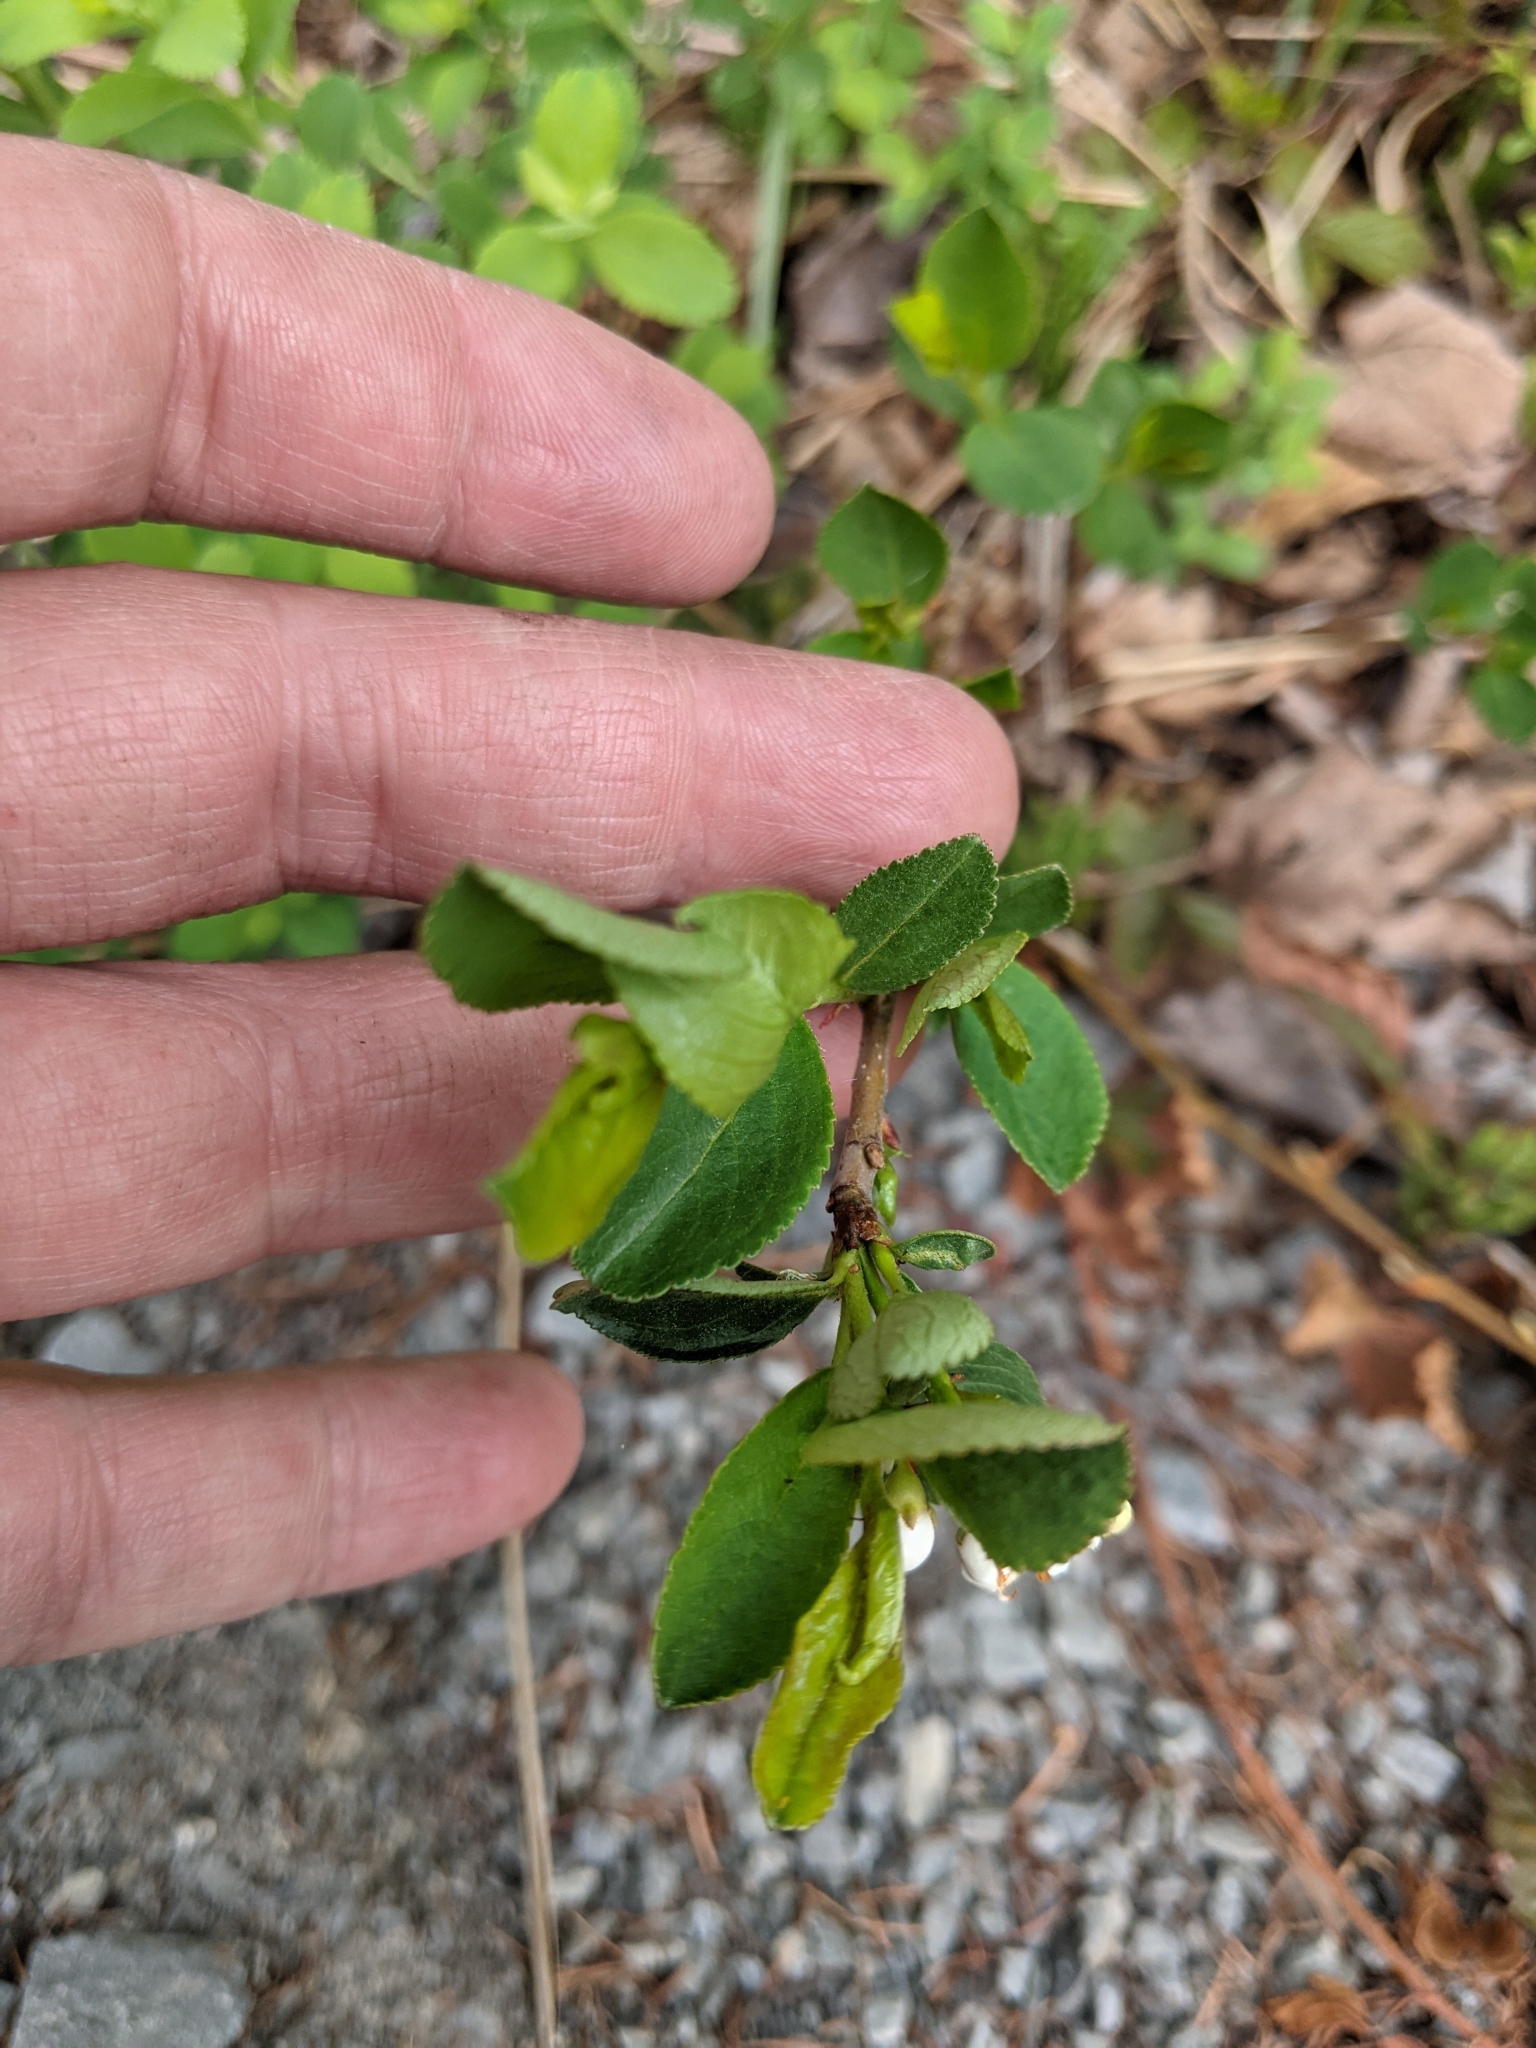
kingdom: Plantae
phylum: Tracheophyta
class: Magnoliopsida
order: Rosales
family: Rosaceae
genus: Aronia
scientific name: Aronia melanocarpa
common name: Black chokeberry
